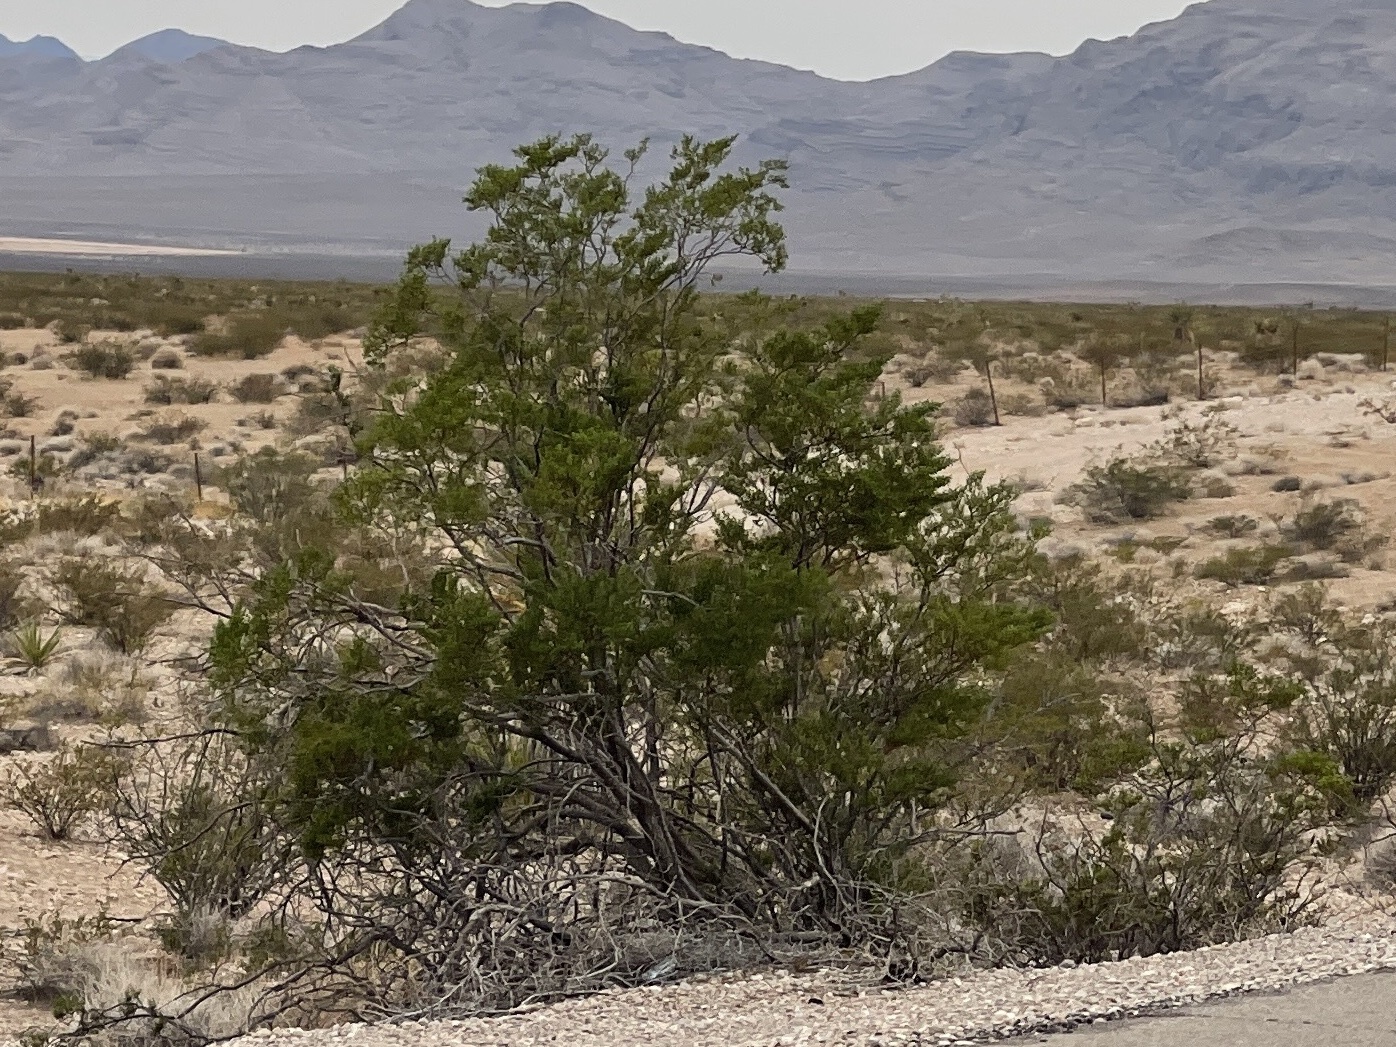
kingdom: Plantae
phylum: Tracheophyta
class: Magnoliopsida
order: Zygophyllales
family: Zygophyllaceae
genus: Larrea
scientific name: Larrea tridentata
